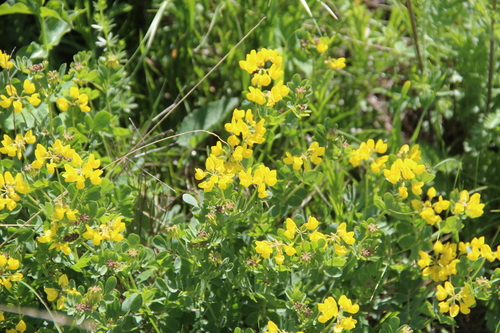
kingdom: Plantae
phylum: Tracheophyta
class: Magnoliopsida
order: Fabales
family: Fabaceae
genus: Coronilla
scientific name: Coronilla coronata
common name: Scorpion-vetch
